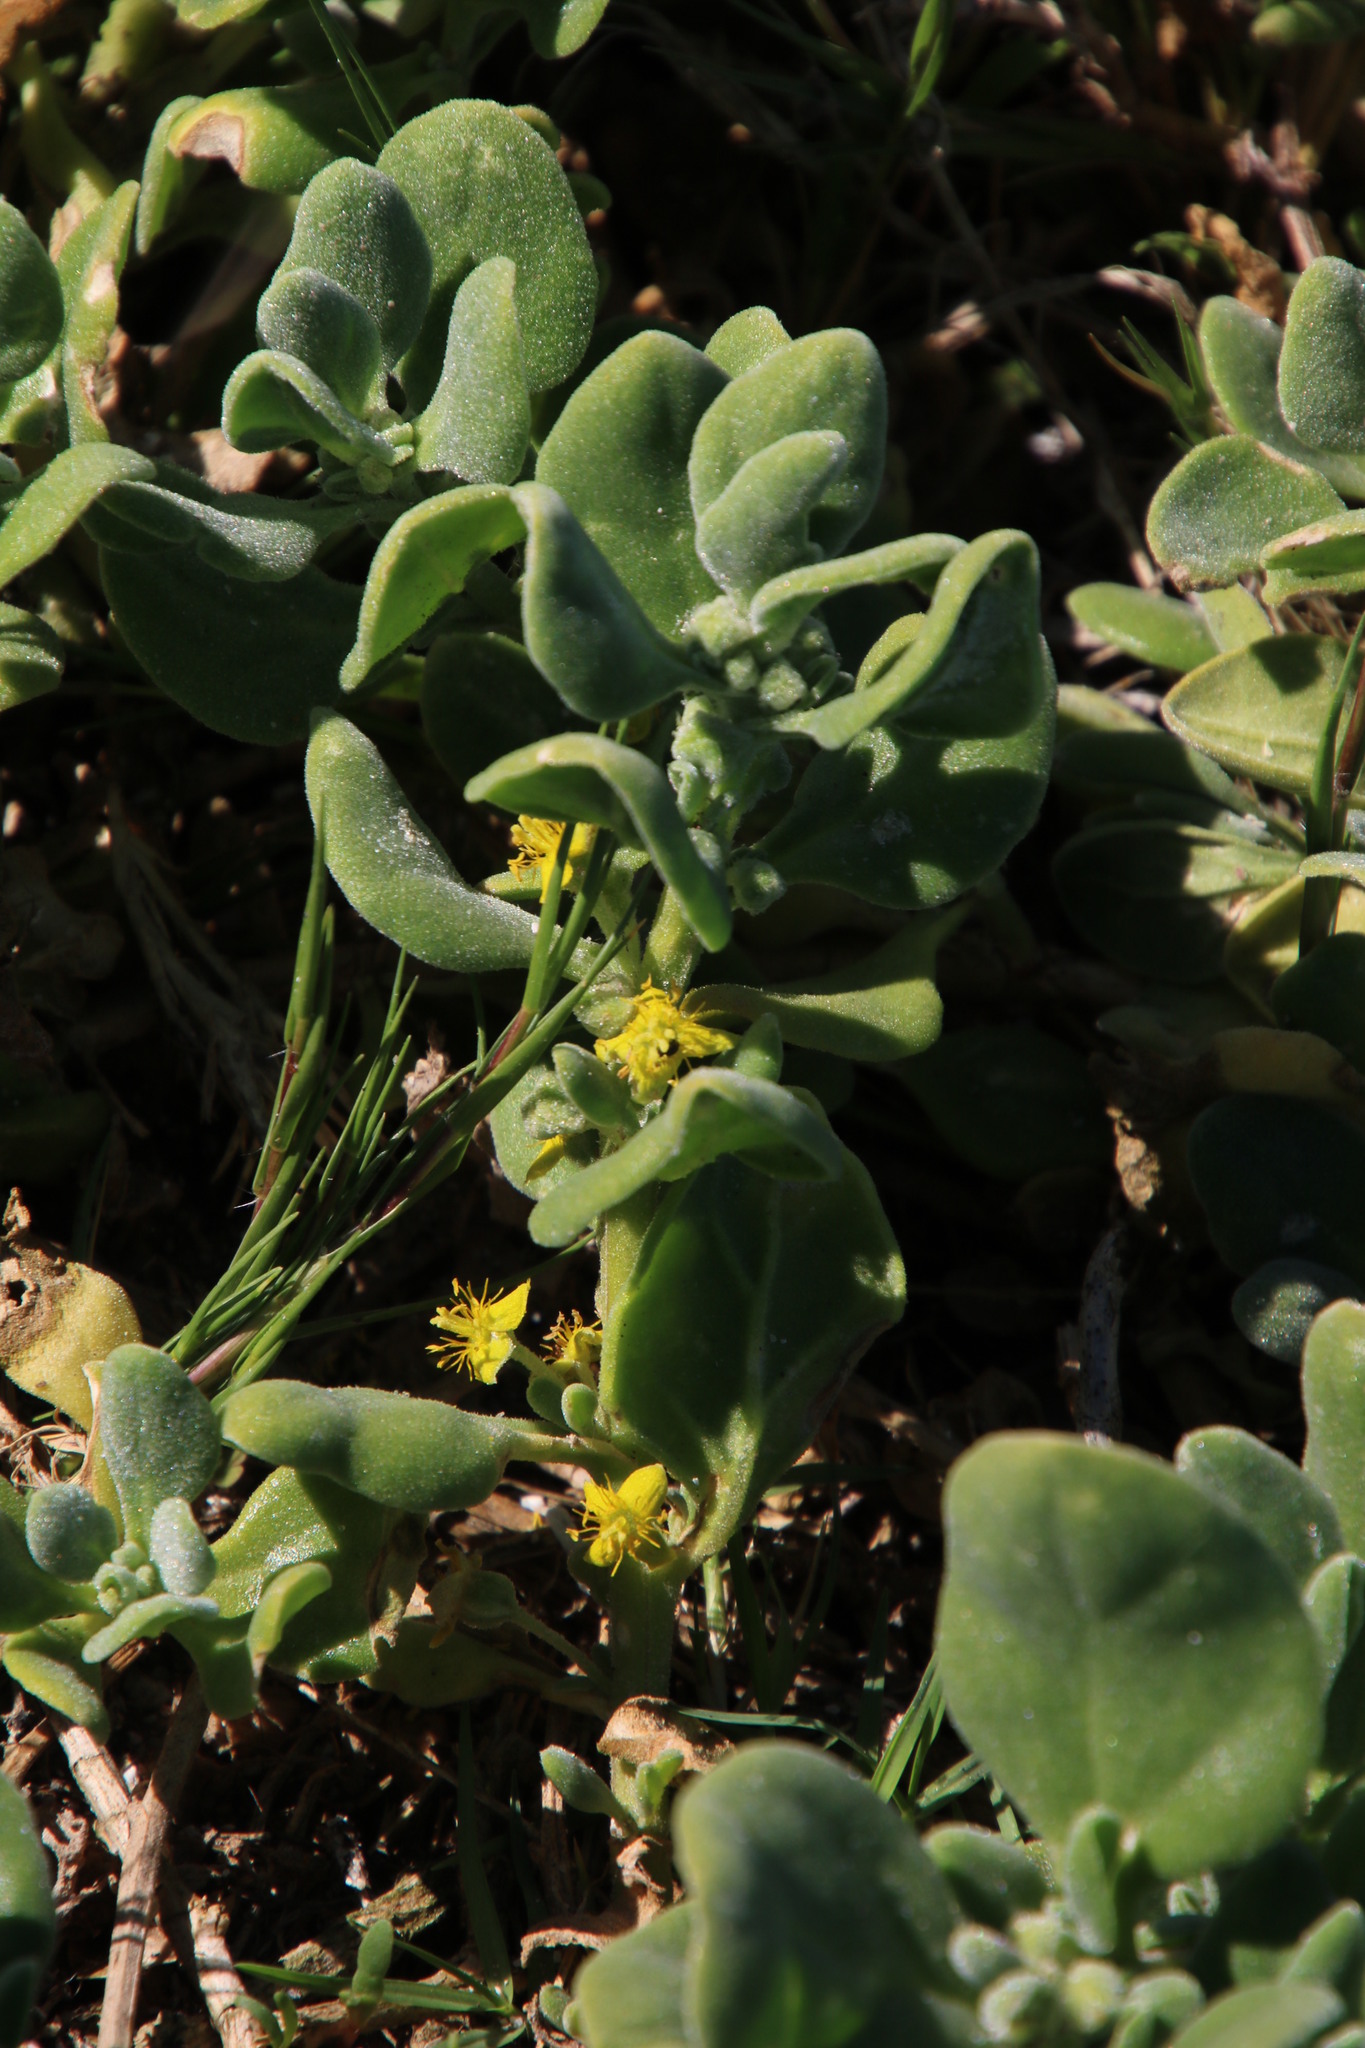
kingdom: Plantae
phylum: Tracheophyta
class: Magnoliopsida
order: Caryophyllales
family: Aizoaceae
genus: Tetragonia
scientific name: Tetragonia decumbens
